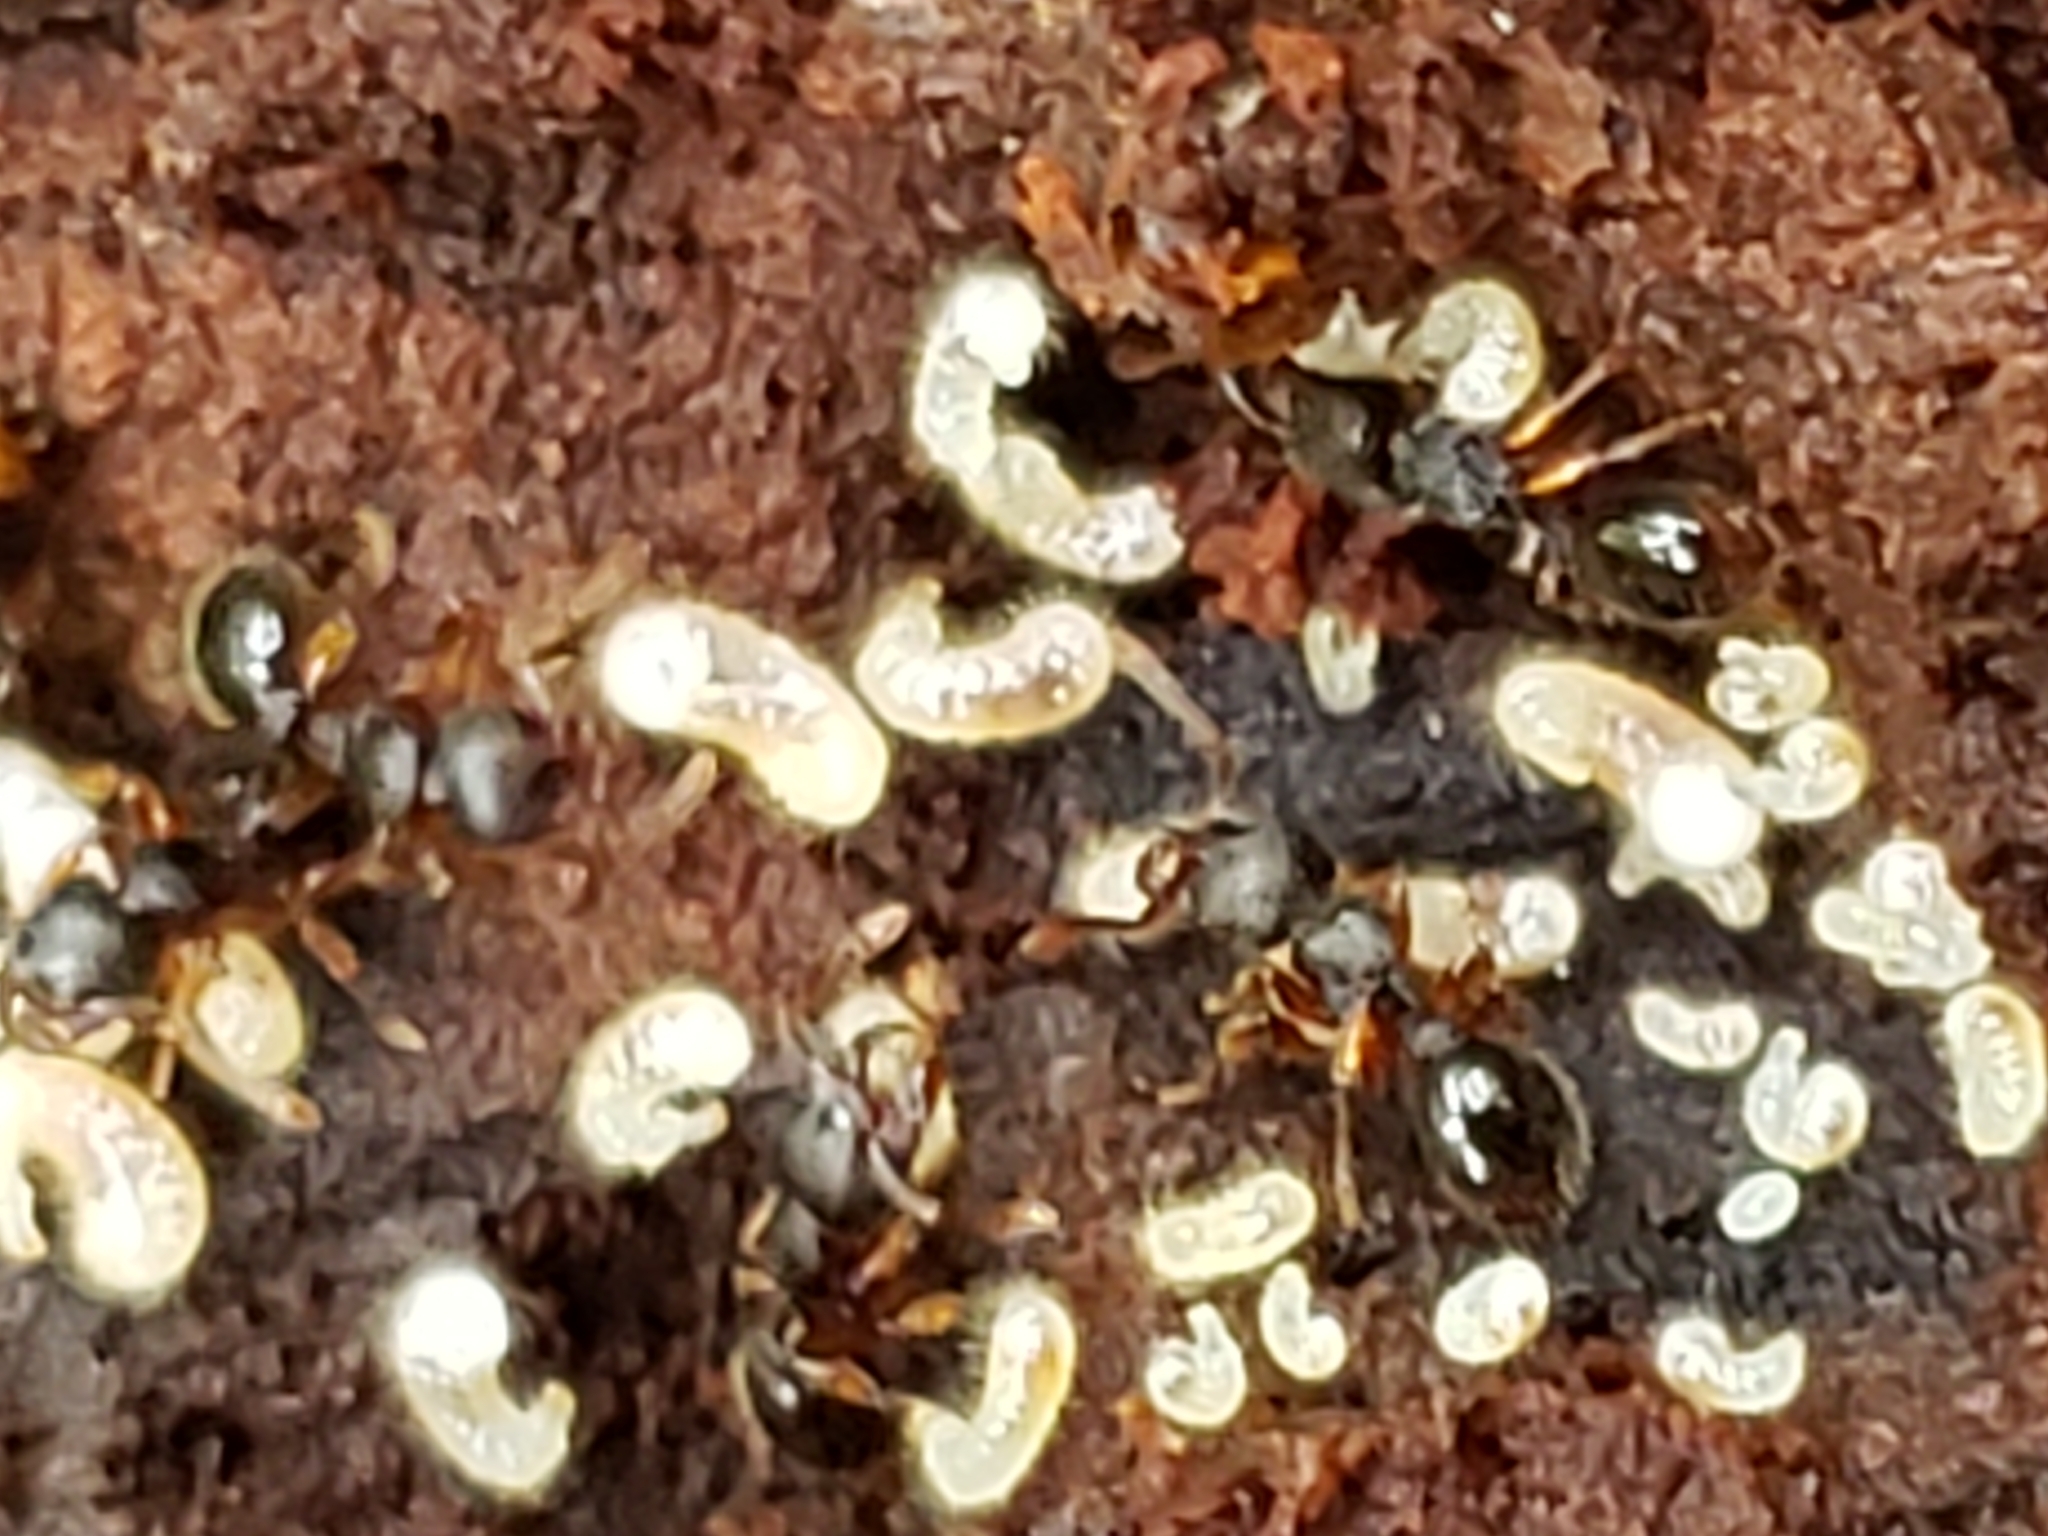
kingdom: Animalia
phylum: Arthropoda
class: Insecta
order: Hymenoptera
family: Formicidae
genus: Myrmecina
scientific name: Myrmecina americana
